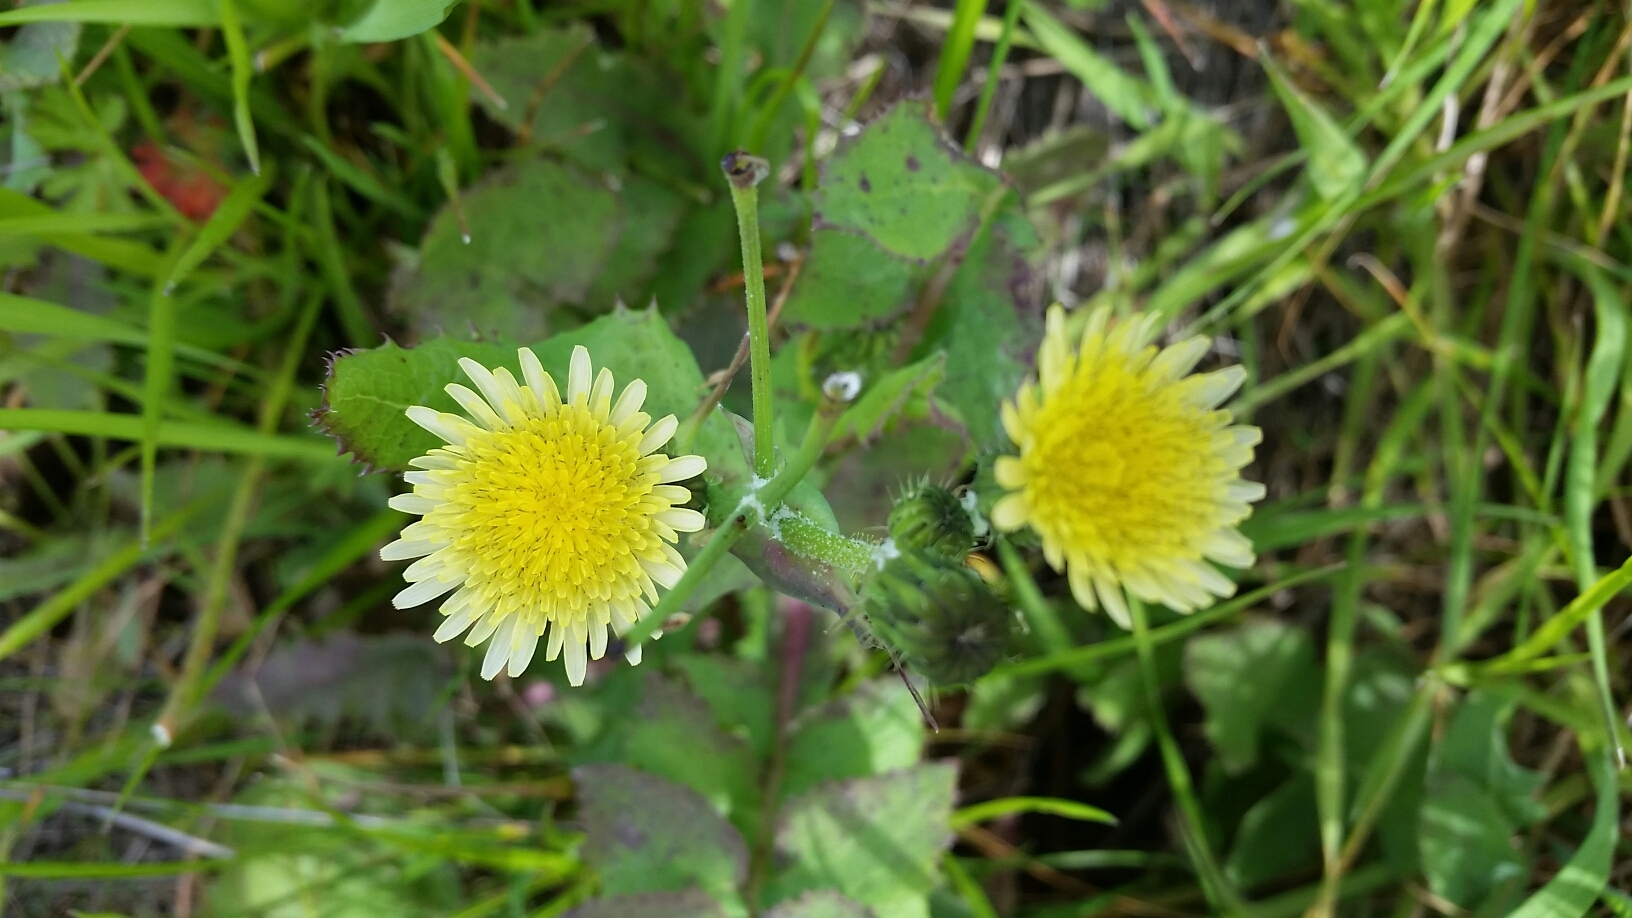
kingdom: Plantae
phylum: Tracheophyta
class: Magnoliopsida
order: Asterales
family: Asteraceae
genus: Sonchus
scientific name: Sonchus oleraceus
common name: Common sowthistle
